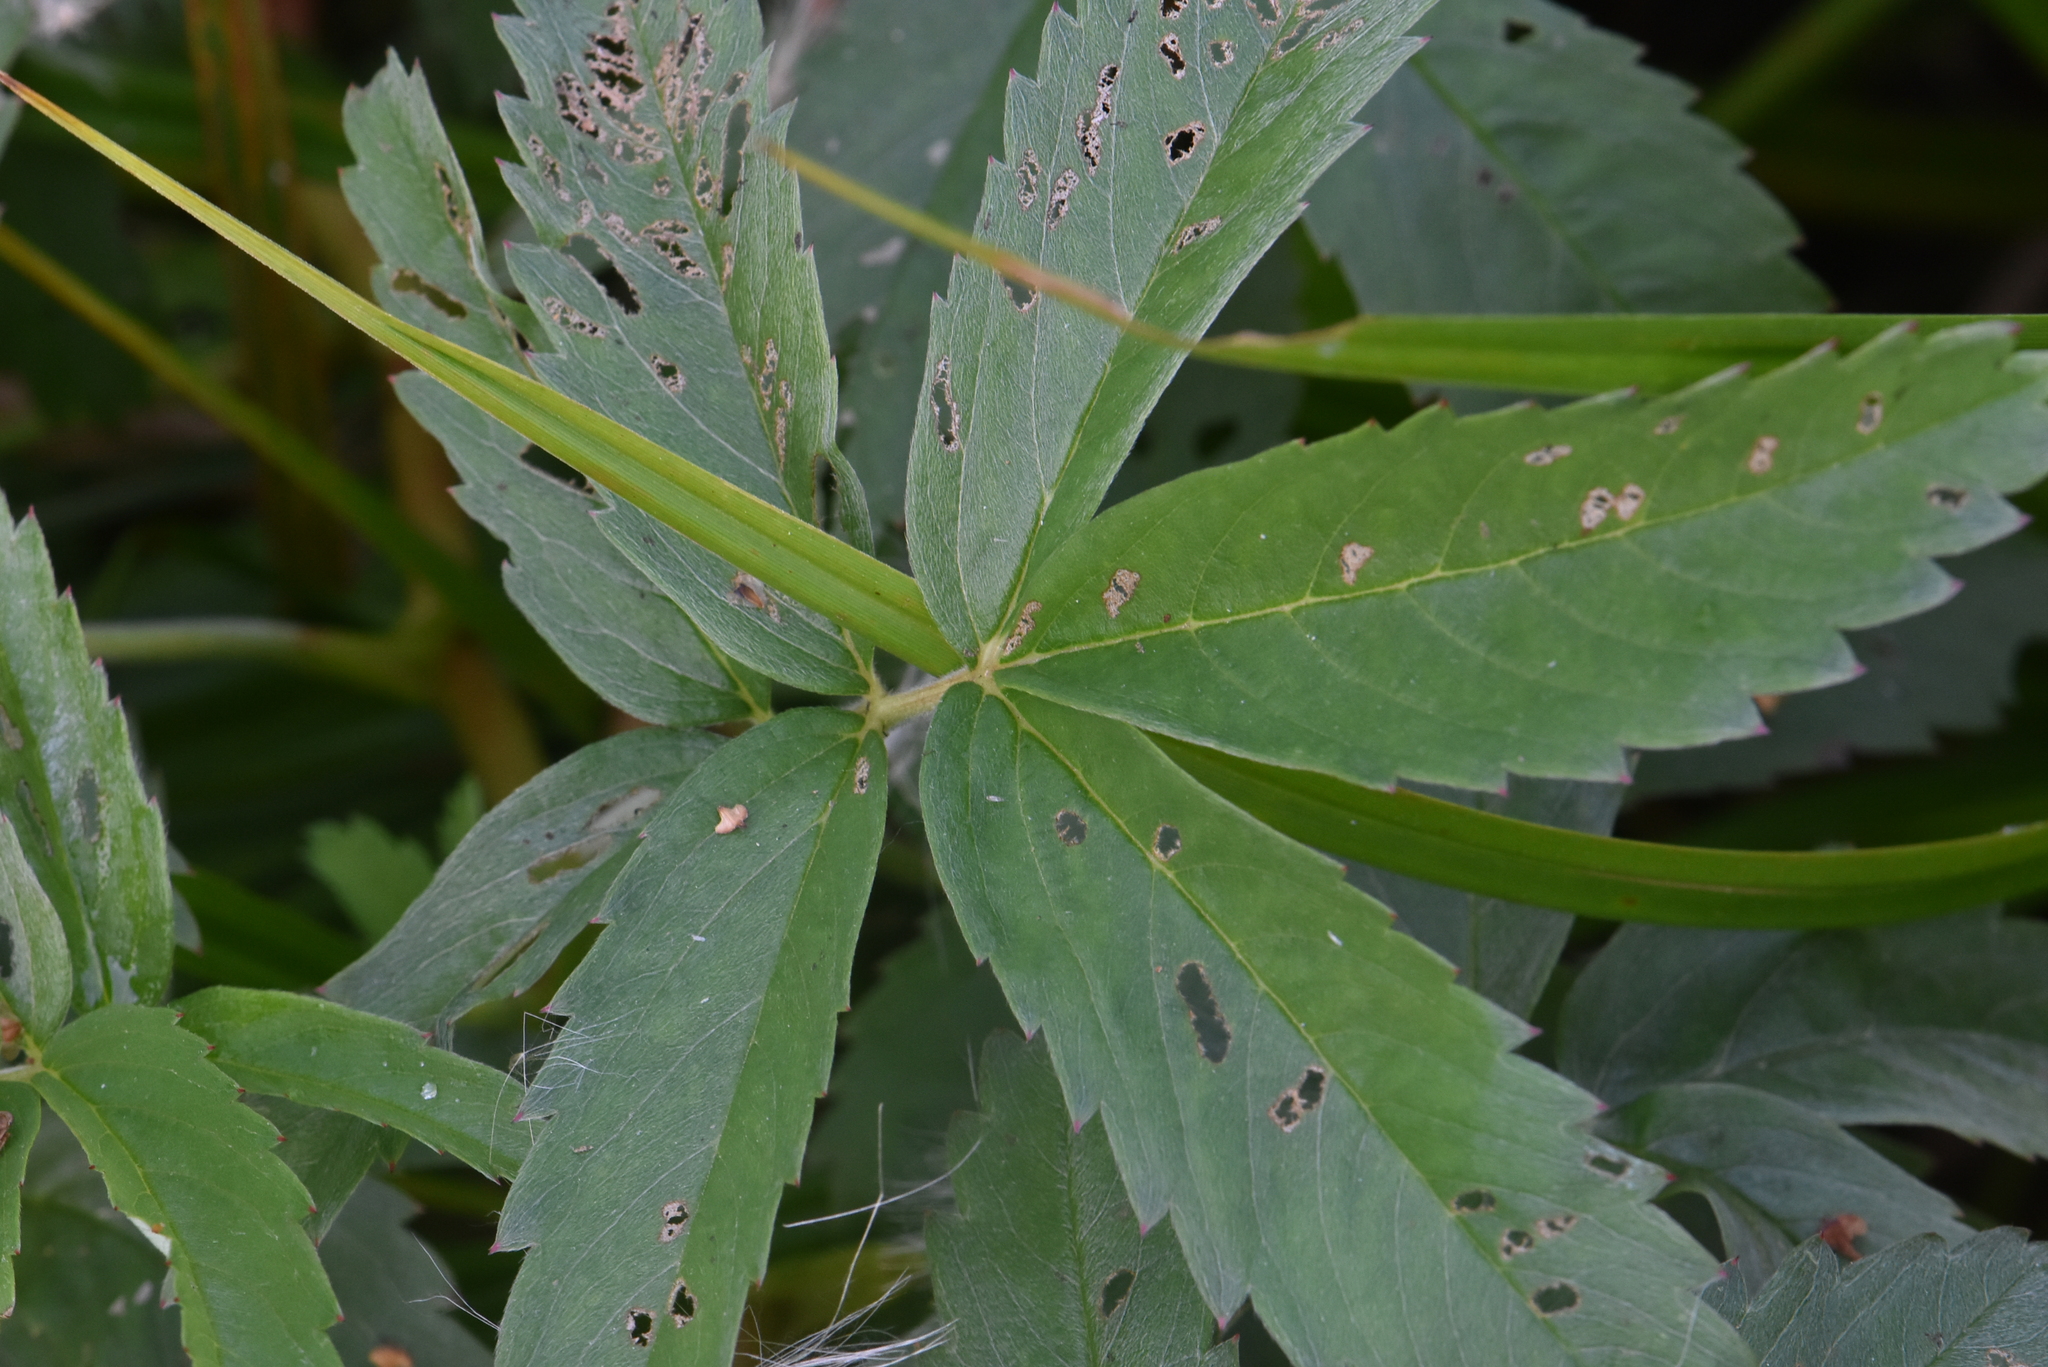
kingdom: Plantae
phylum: Tracheophyta
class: Magnoliopsida
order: Rosales
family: Rosaceae
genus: Comarum
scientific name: Comarum palustre
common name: Marsh cinquefoil
